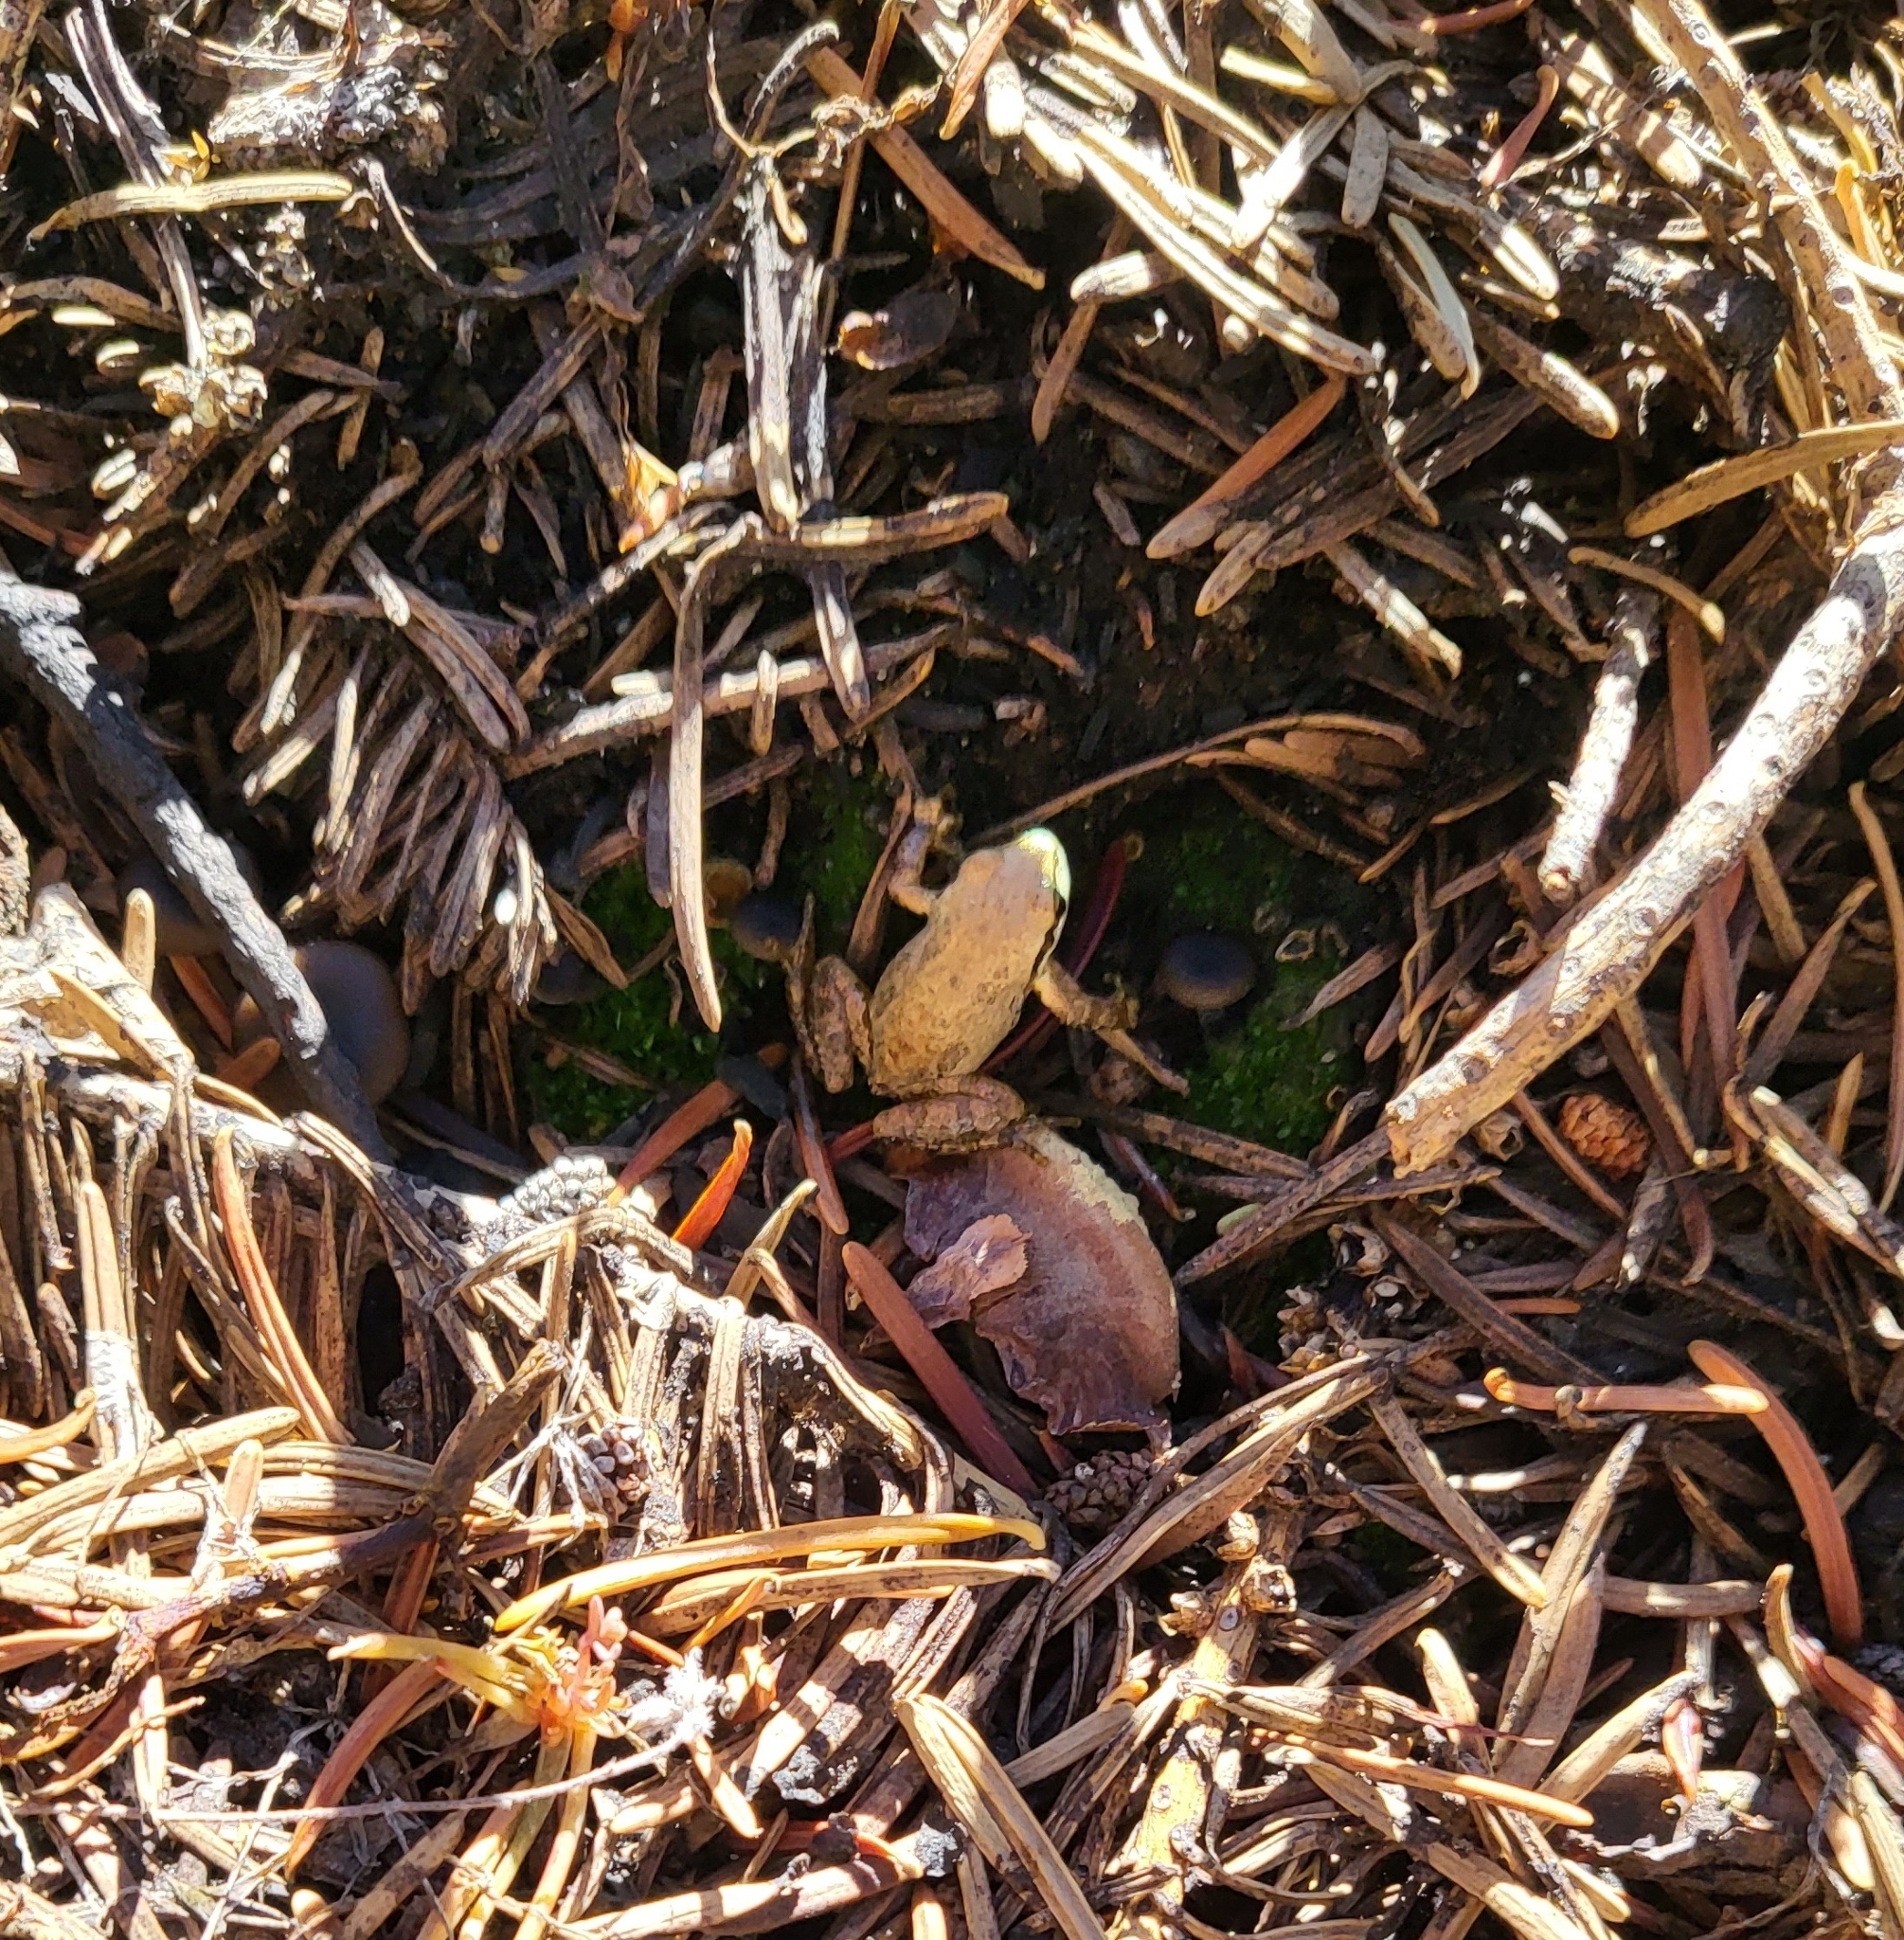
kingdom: Animalia
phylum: Chordata
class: Amphibia
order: Anura
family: Hylidae
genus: Pseudacris
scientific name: Pseudacris regilla
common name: Pacific chorus frog
